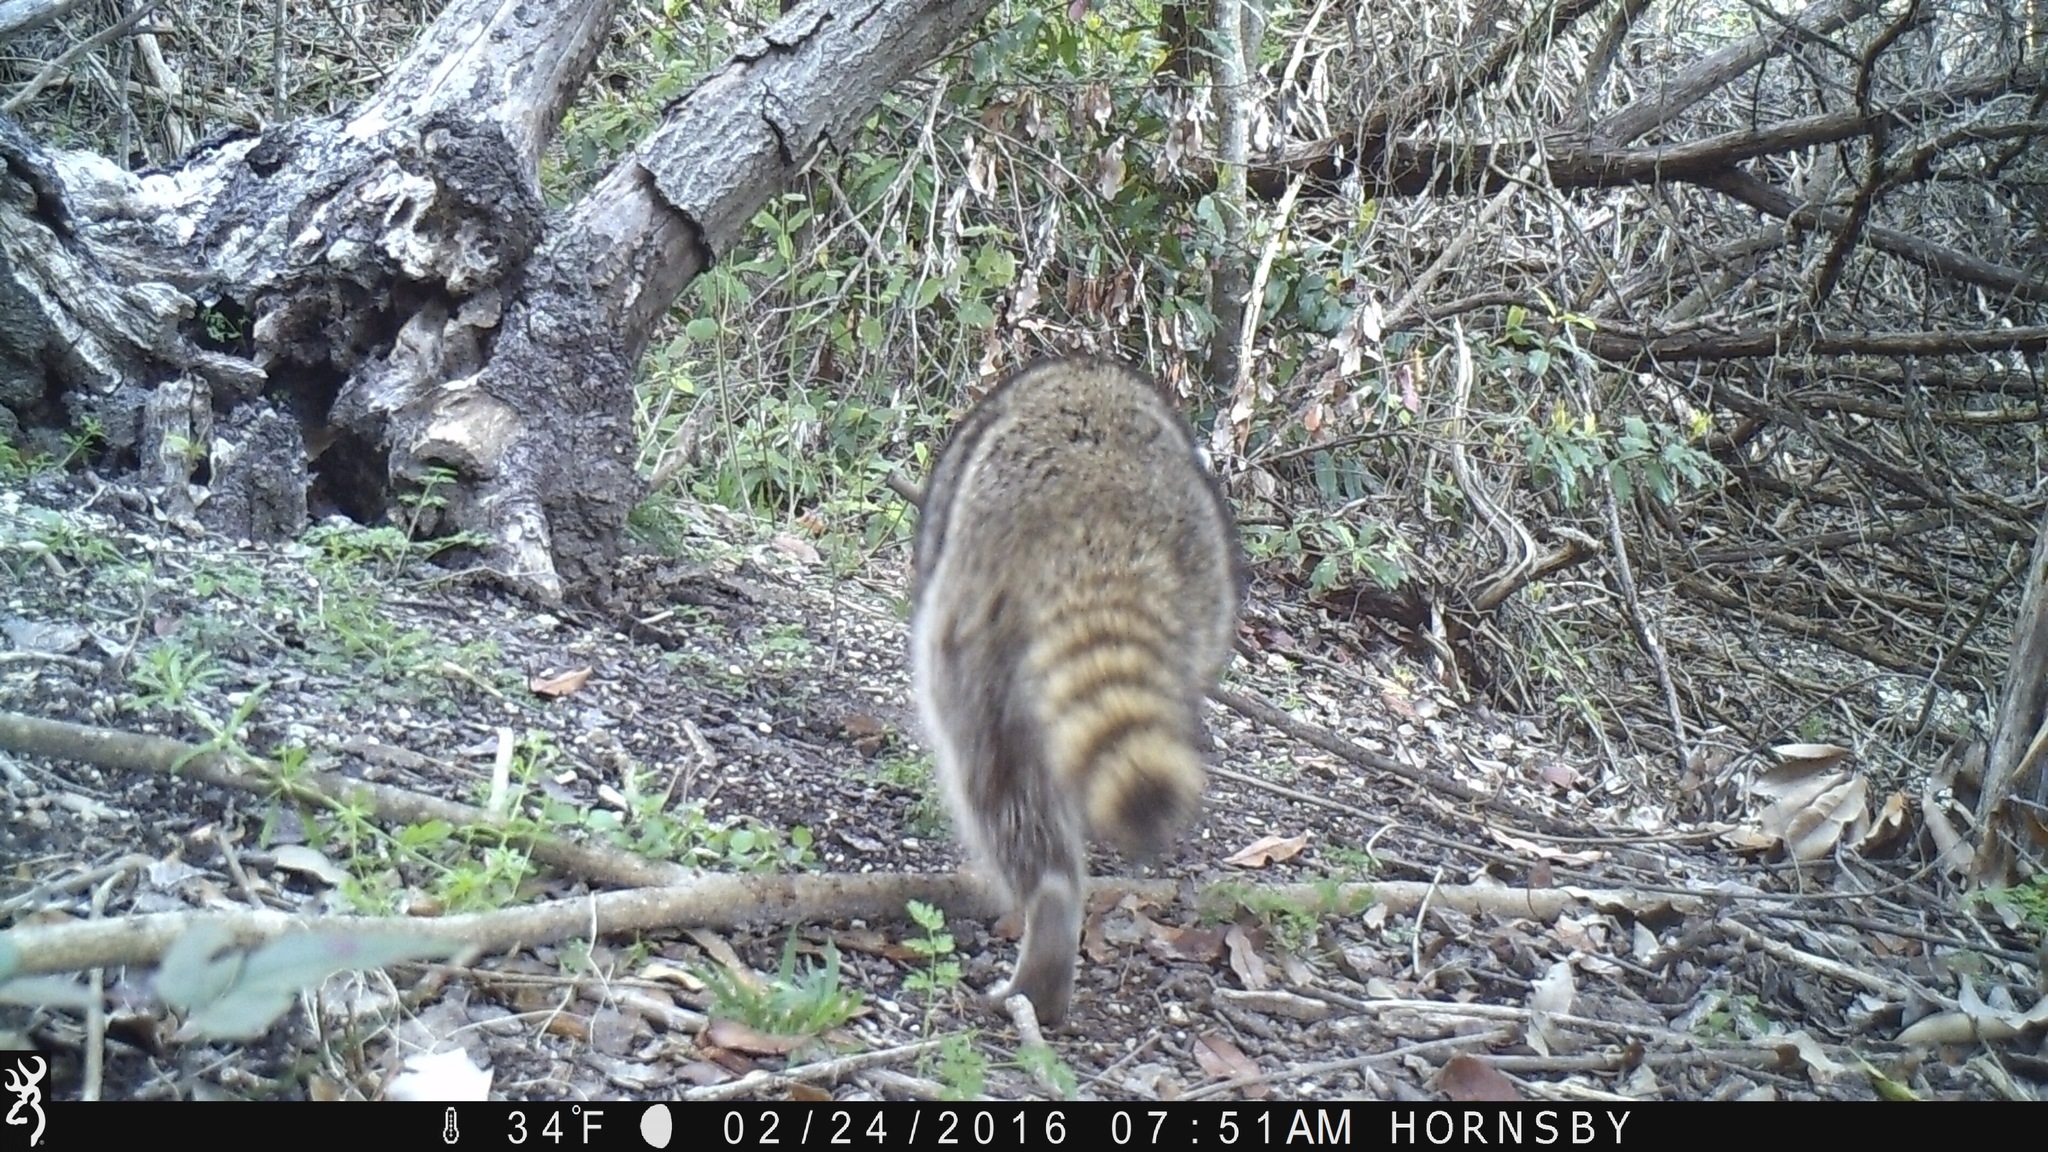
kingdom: Animalia
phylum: Chordata
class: Mammalia
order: Carnivora
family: Procyonidae
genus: Procyon
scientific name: Procyon lotor
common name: Raccoon
